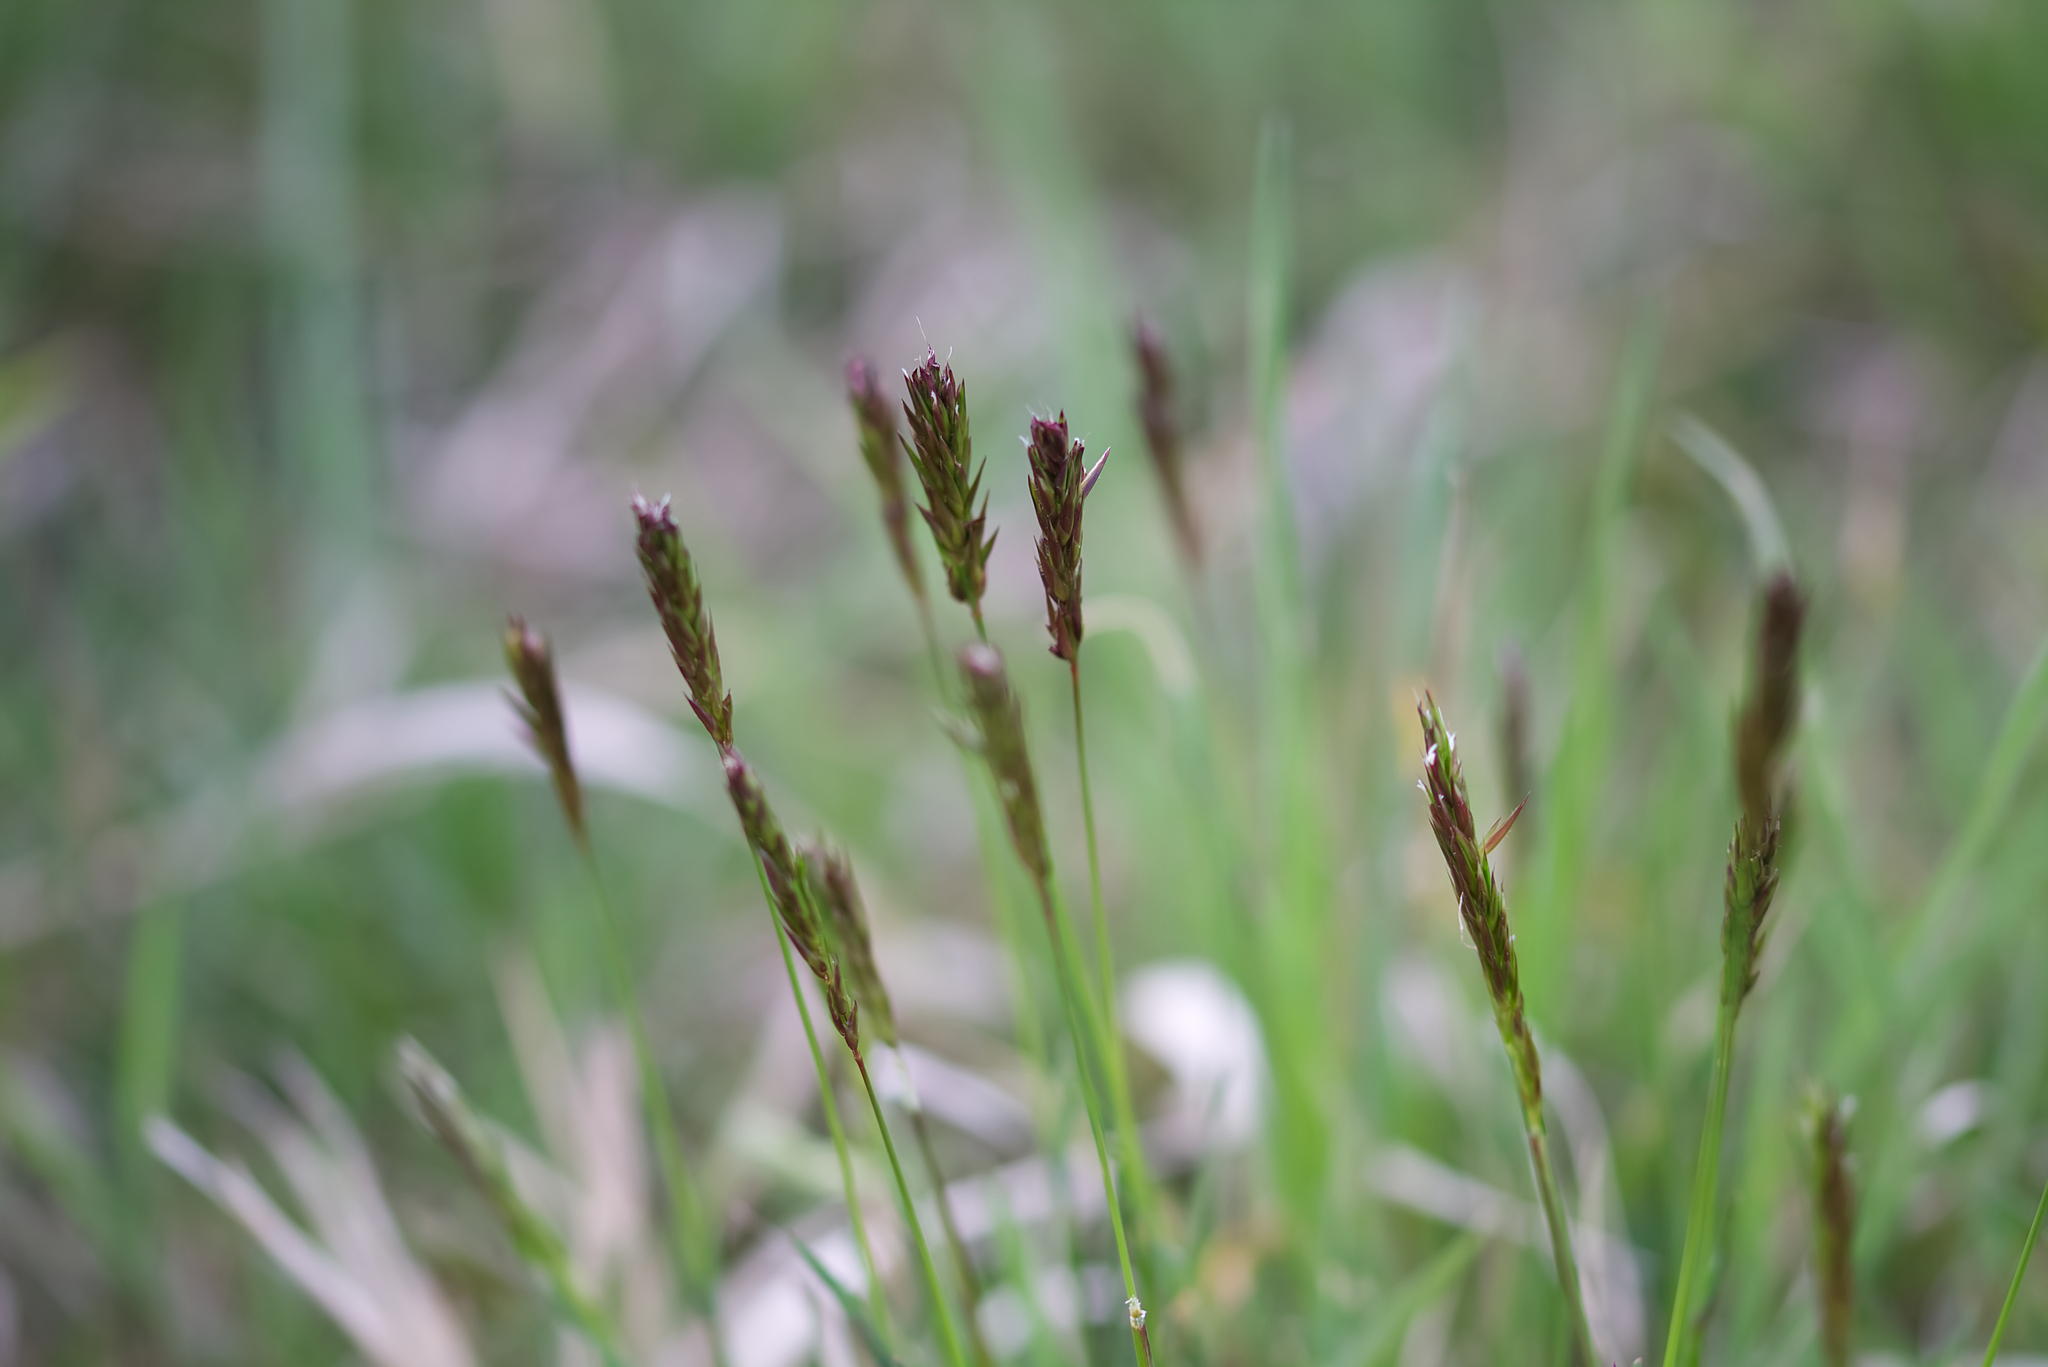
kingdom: Plantae
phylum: Tracheophyta
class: Liliopsida
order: Poales
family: Poaceae
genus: Anthoxanthum
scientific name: Anthoxanthum odoratum
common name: Sweet vernalgrass
